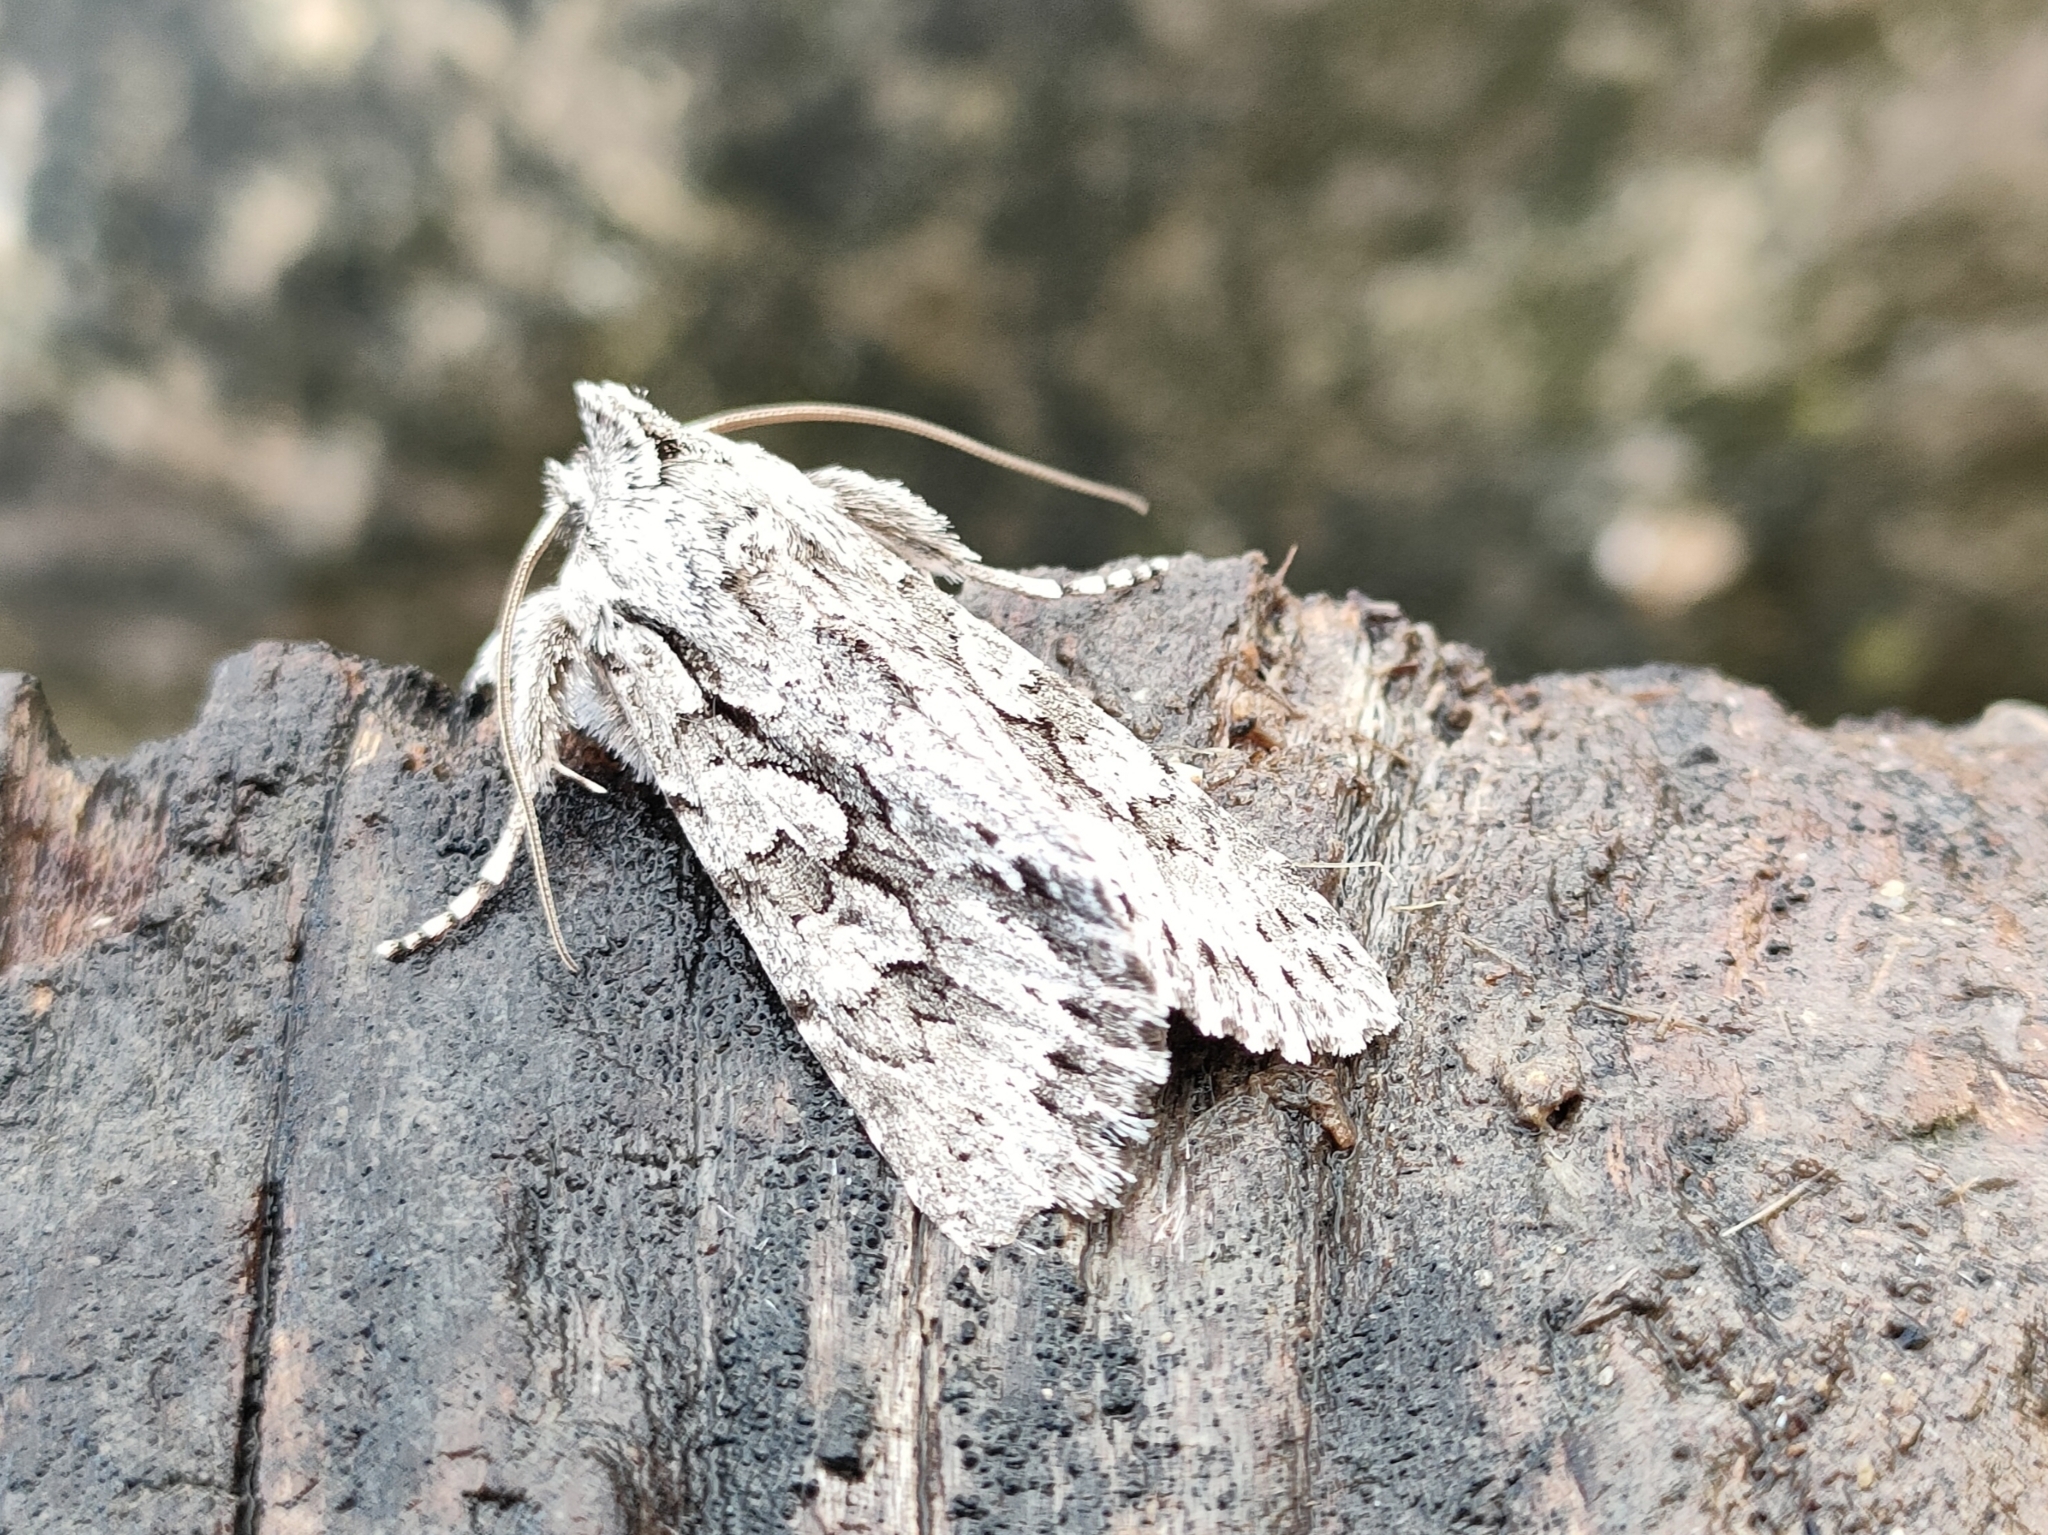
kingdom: Animalia
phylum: Arthropoda
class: Insecta
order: Lepidoptera
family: Noctuidae
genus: Xylocampa
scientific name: Xylocampa areola
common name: Early grey
